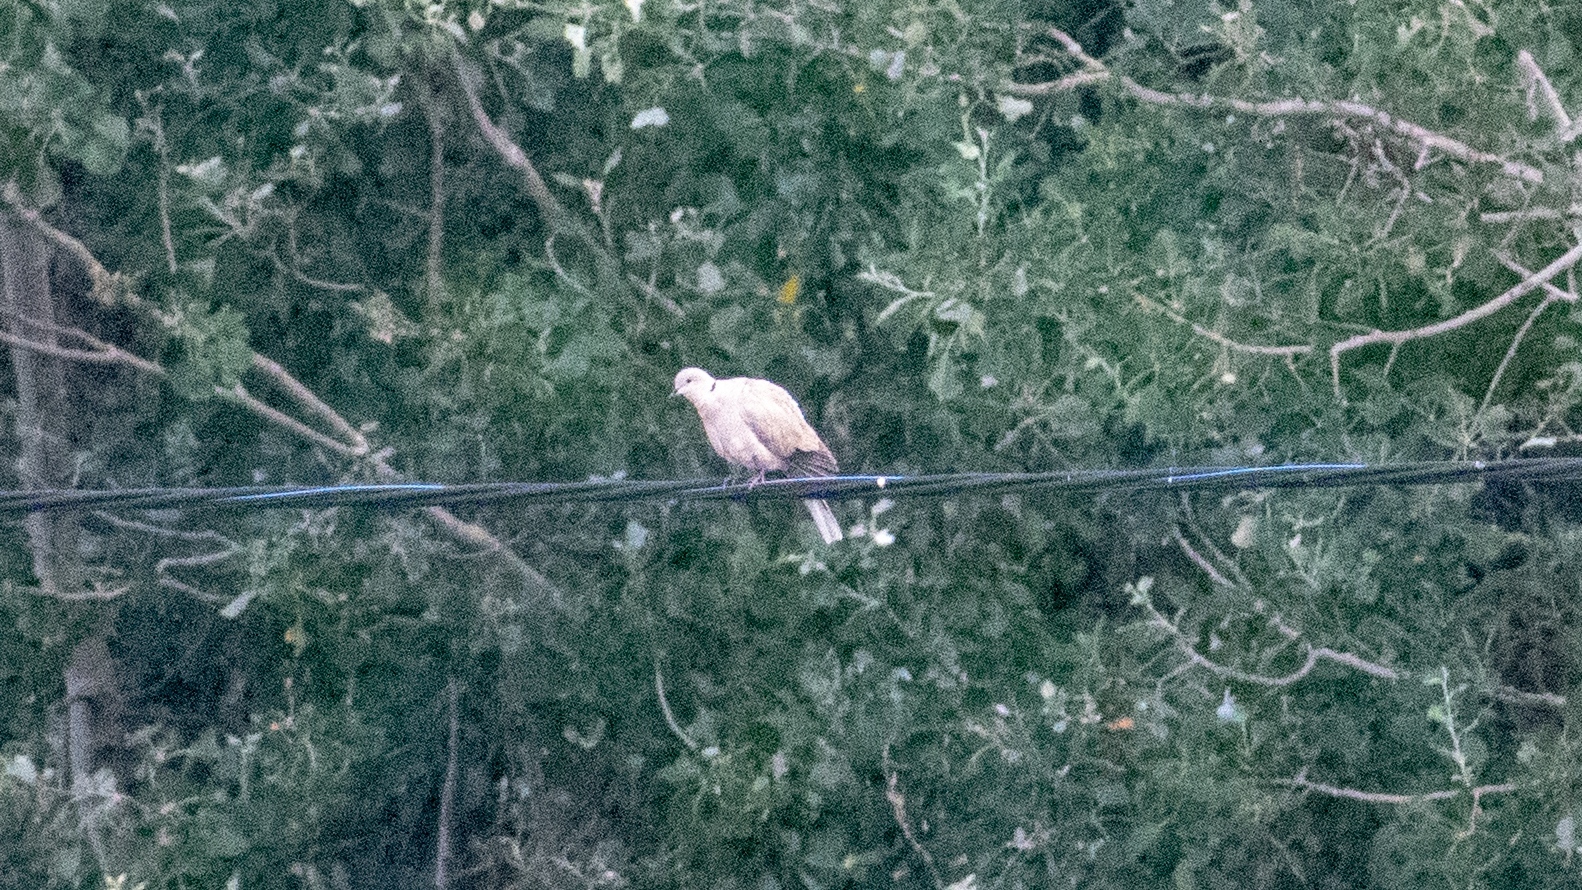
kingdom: Animalia
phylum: Chordata
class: Aves
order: Columbiformes
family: Columbidae
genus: Streptopelia
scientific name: Streptopelia decaocto
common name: Eurasian collared dove
